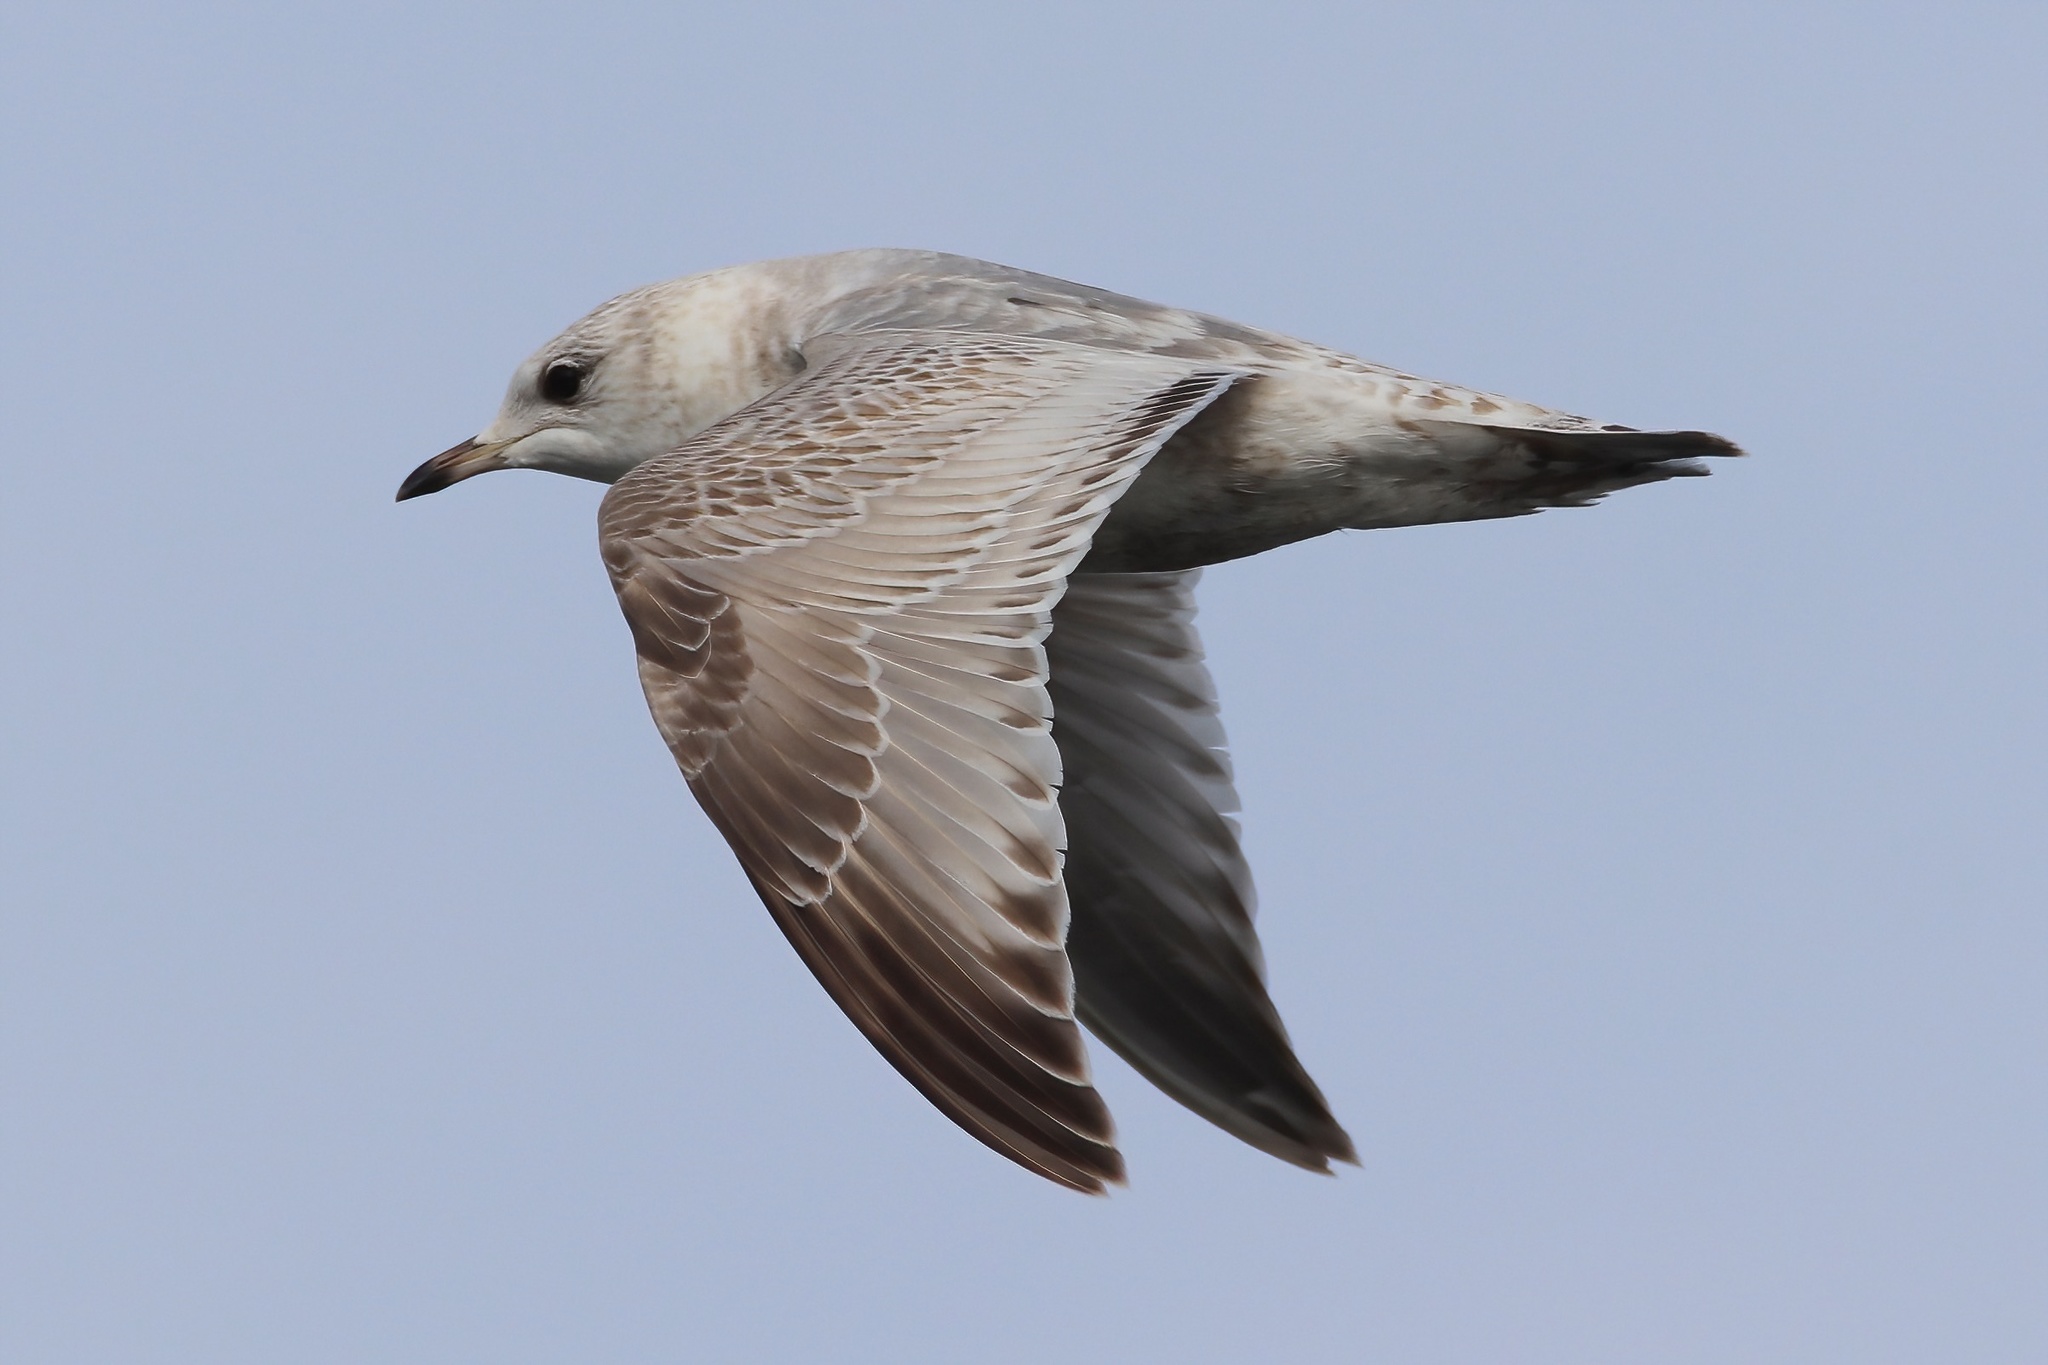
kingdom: Animalia
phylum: Chordata
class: Aves
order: Charadriiformes
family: Laridae
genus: Larus
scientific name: Larus brachyrhynchus
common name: Short-billed gull
